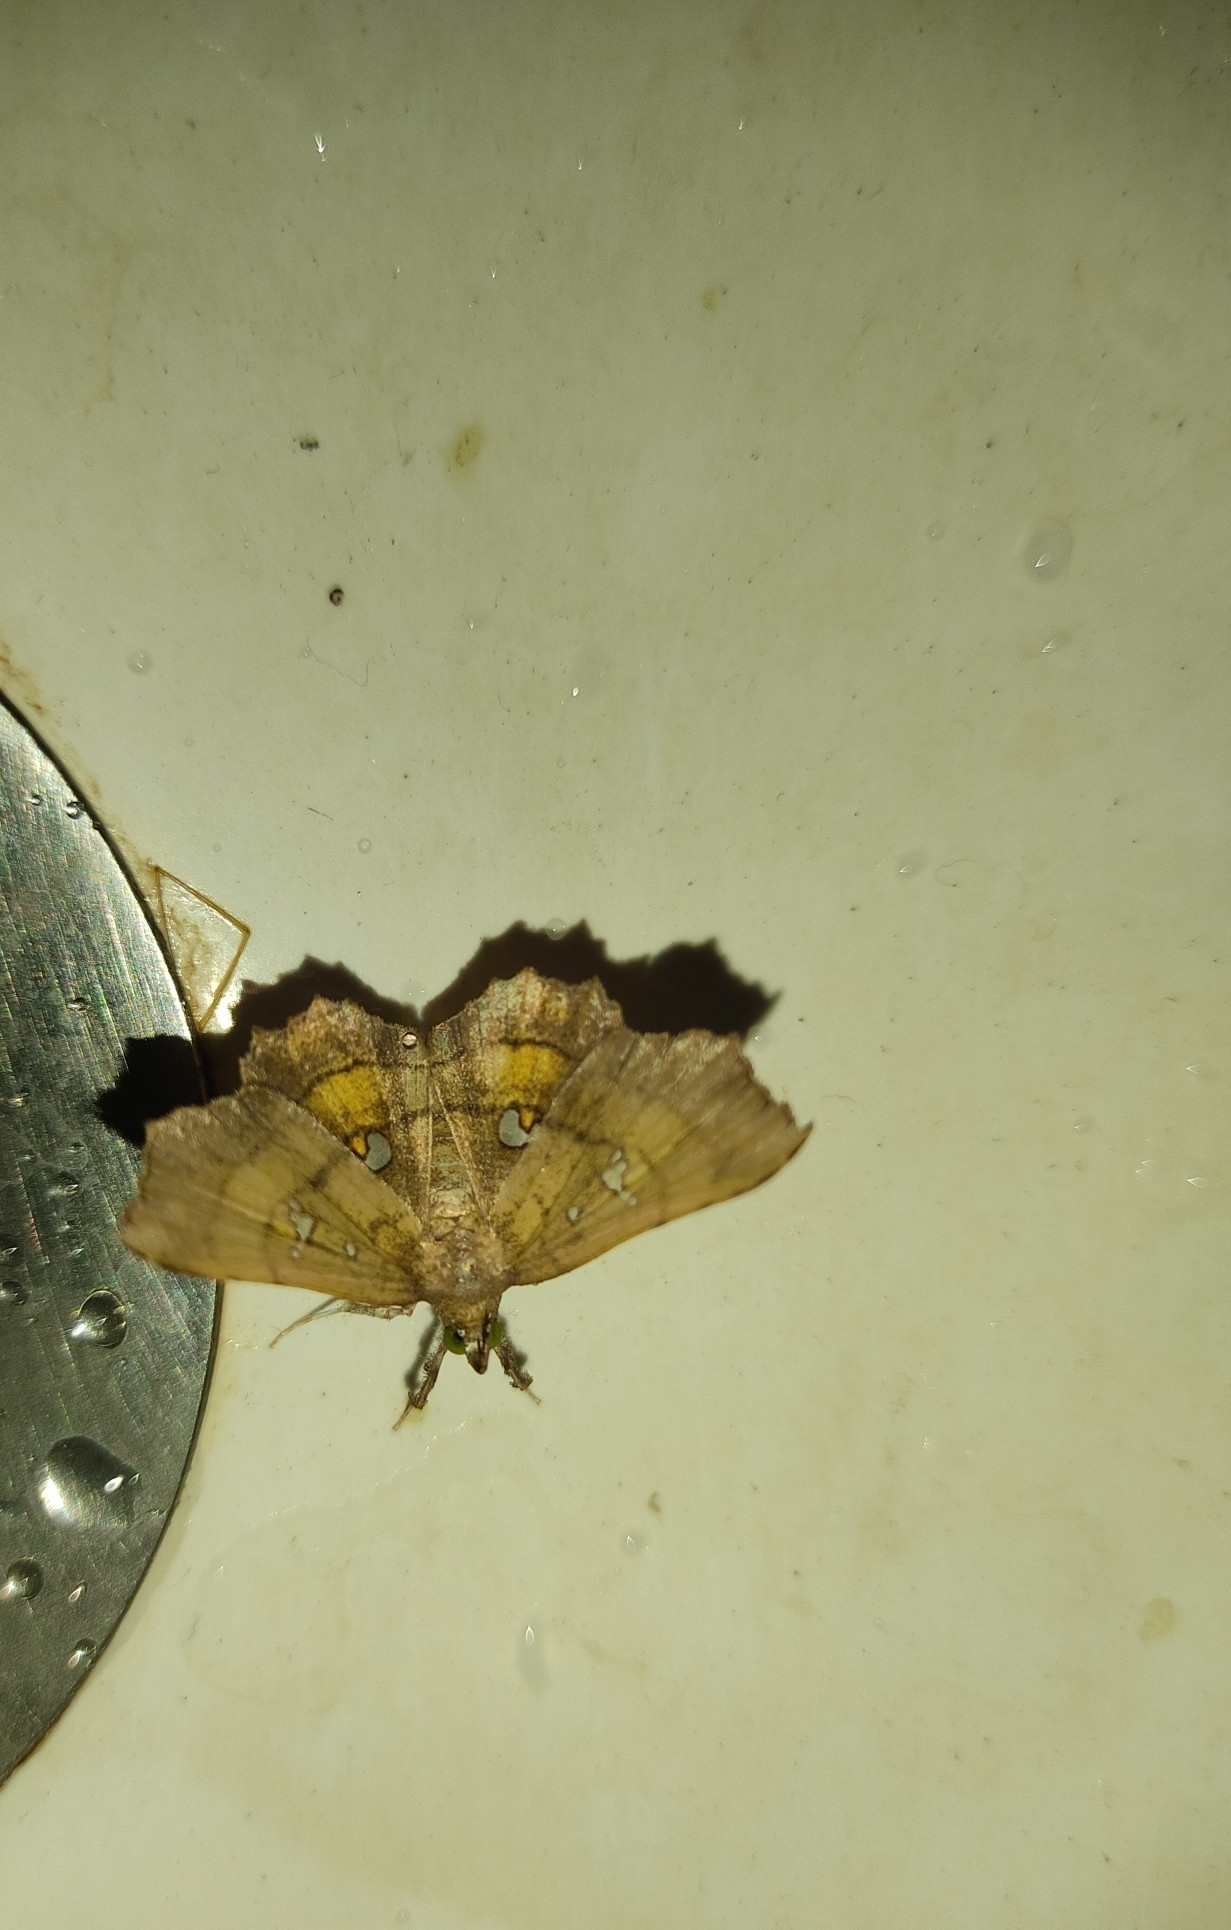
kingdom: Animalia
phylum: Arthropoda
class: Insecta
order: Lepidoptera
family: Erebidae
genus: Egnasia
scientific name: Egnasia ephyrodalis
